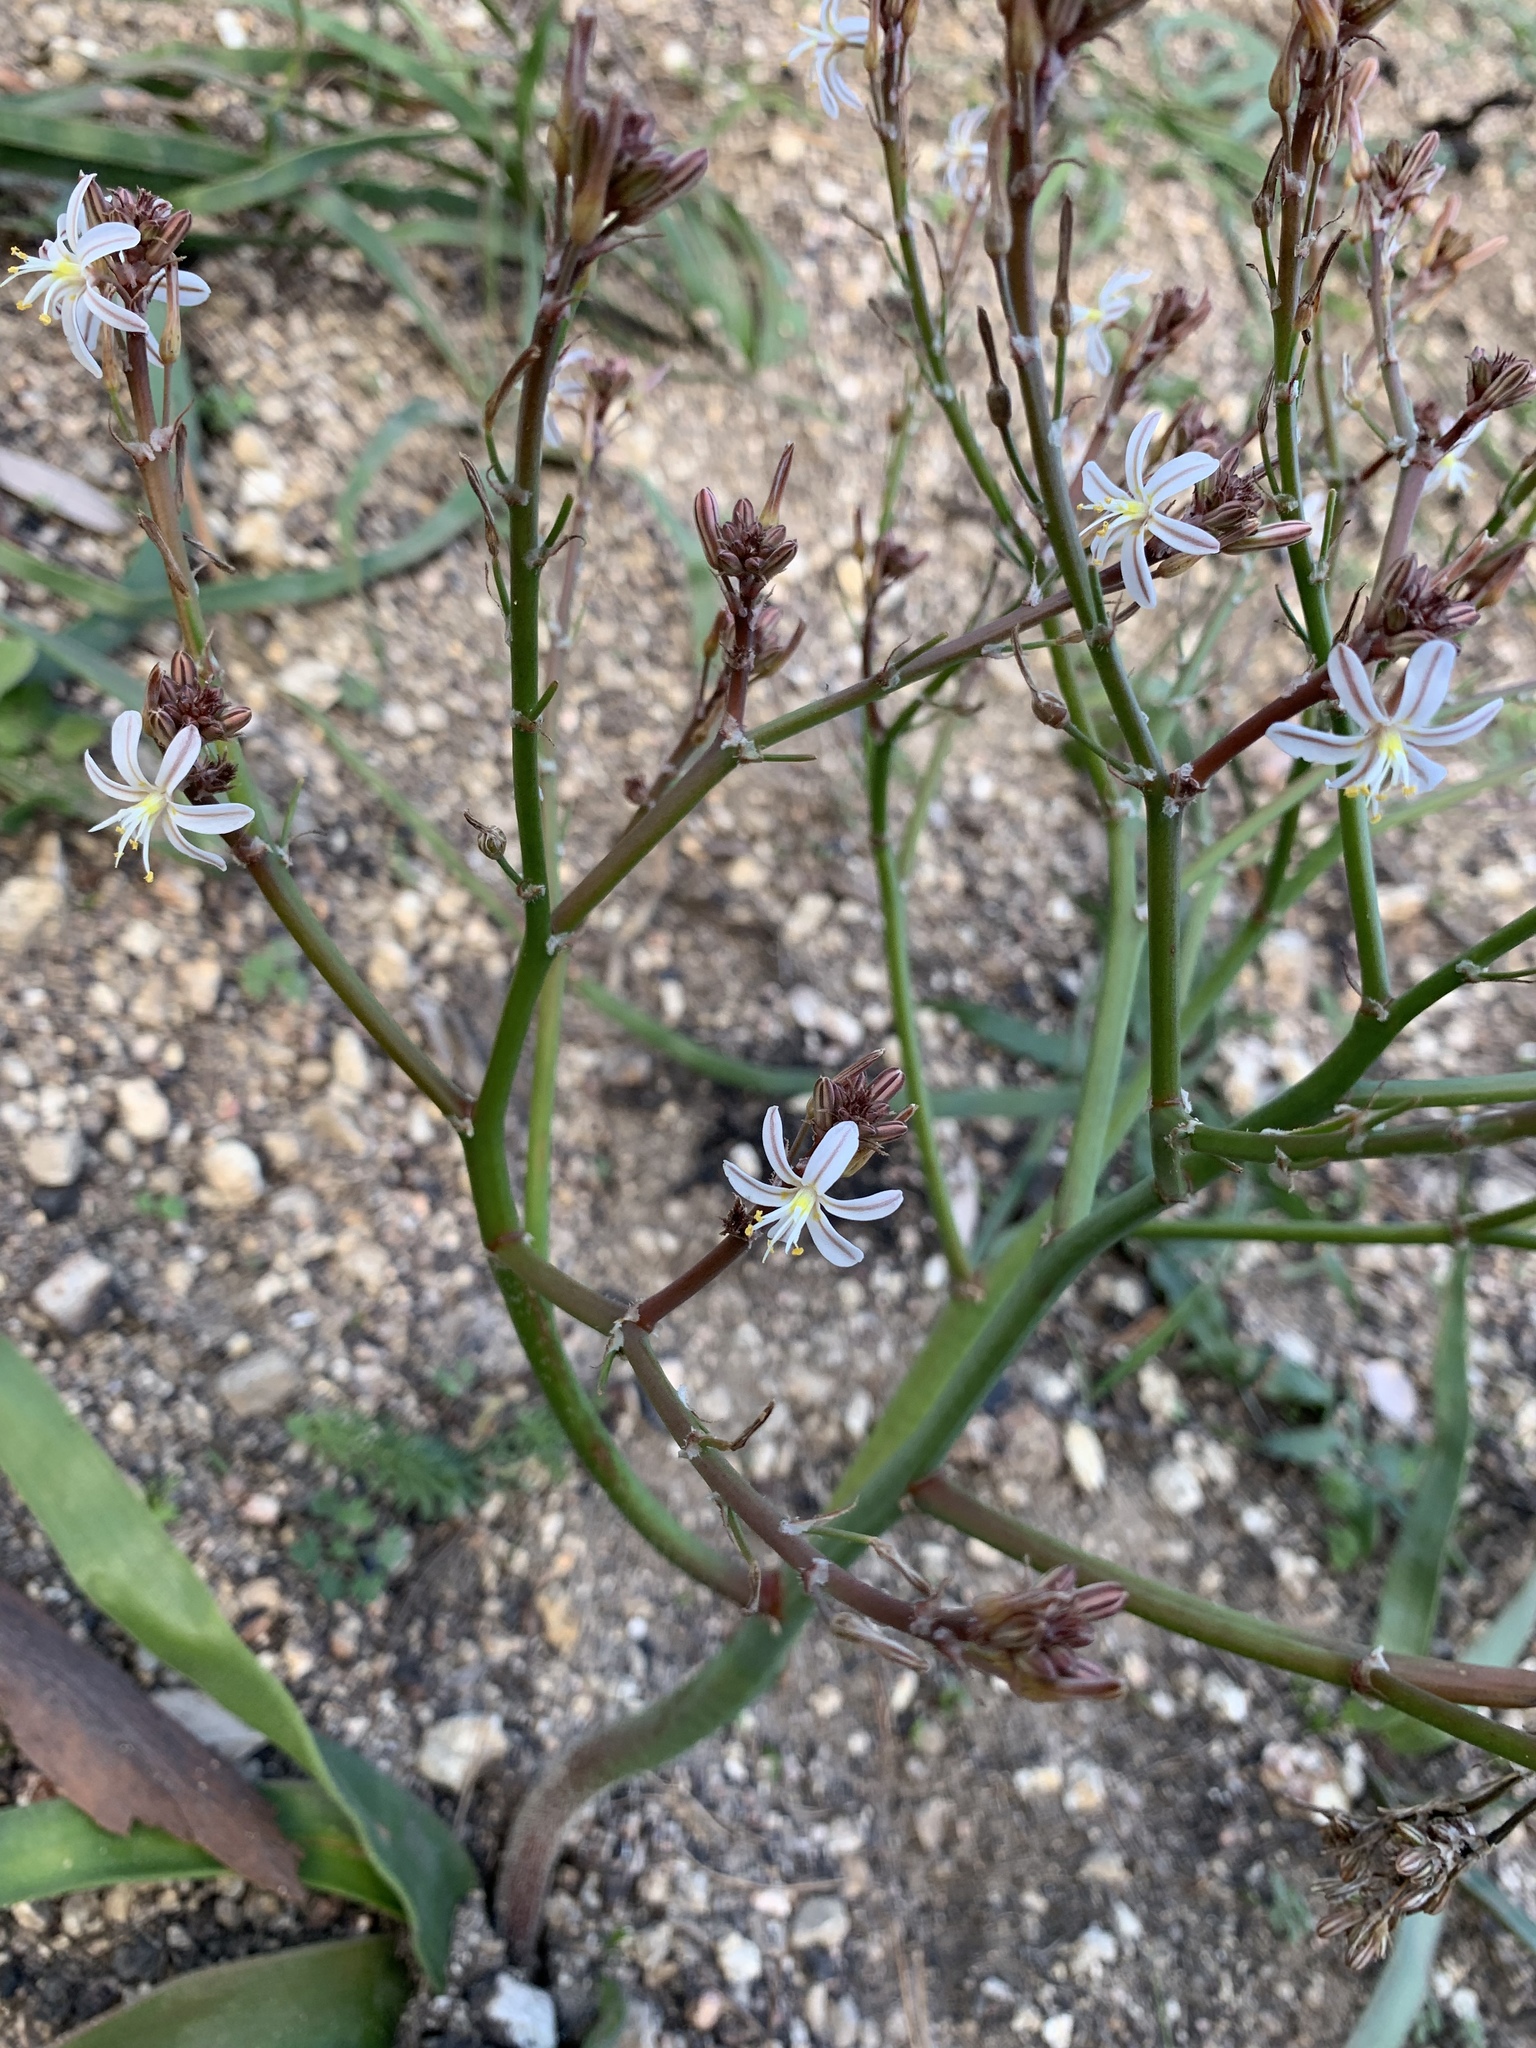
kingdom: Plantae
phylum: Tracheophyta
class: Liliopsida
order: Asparagales
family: Asphodelaceae
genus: Trachyandra
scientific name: Trachyandra muricata
